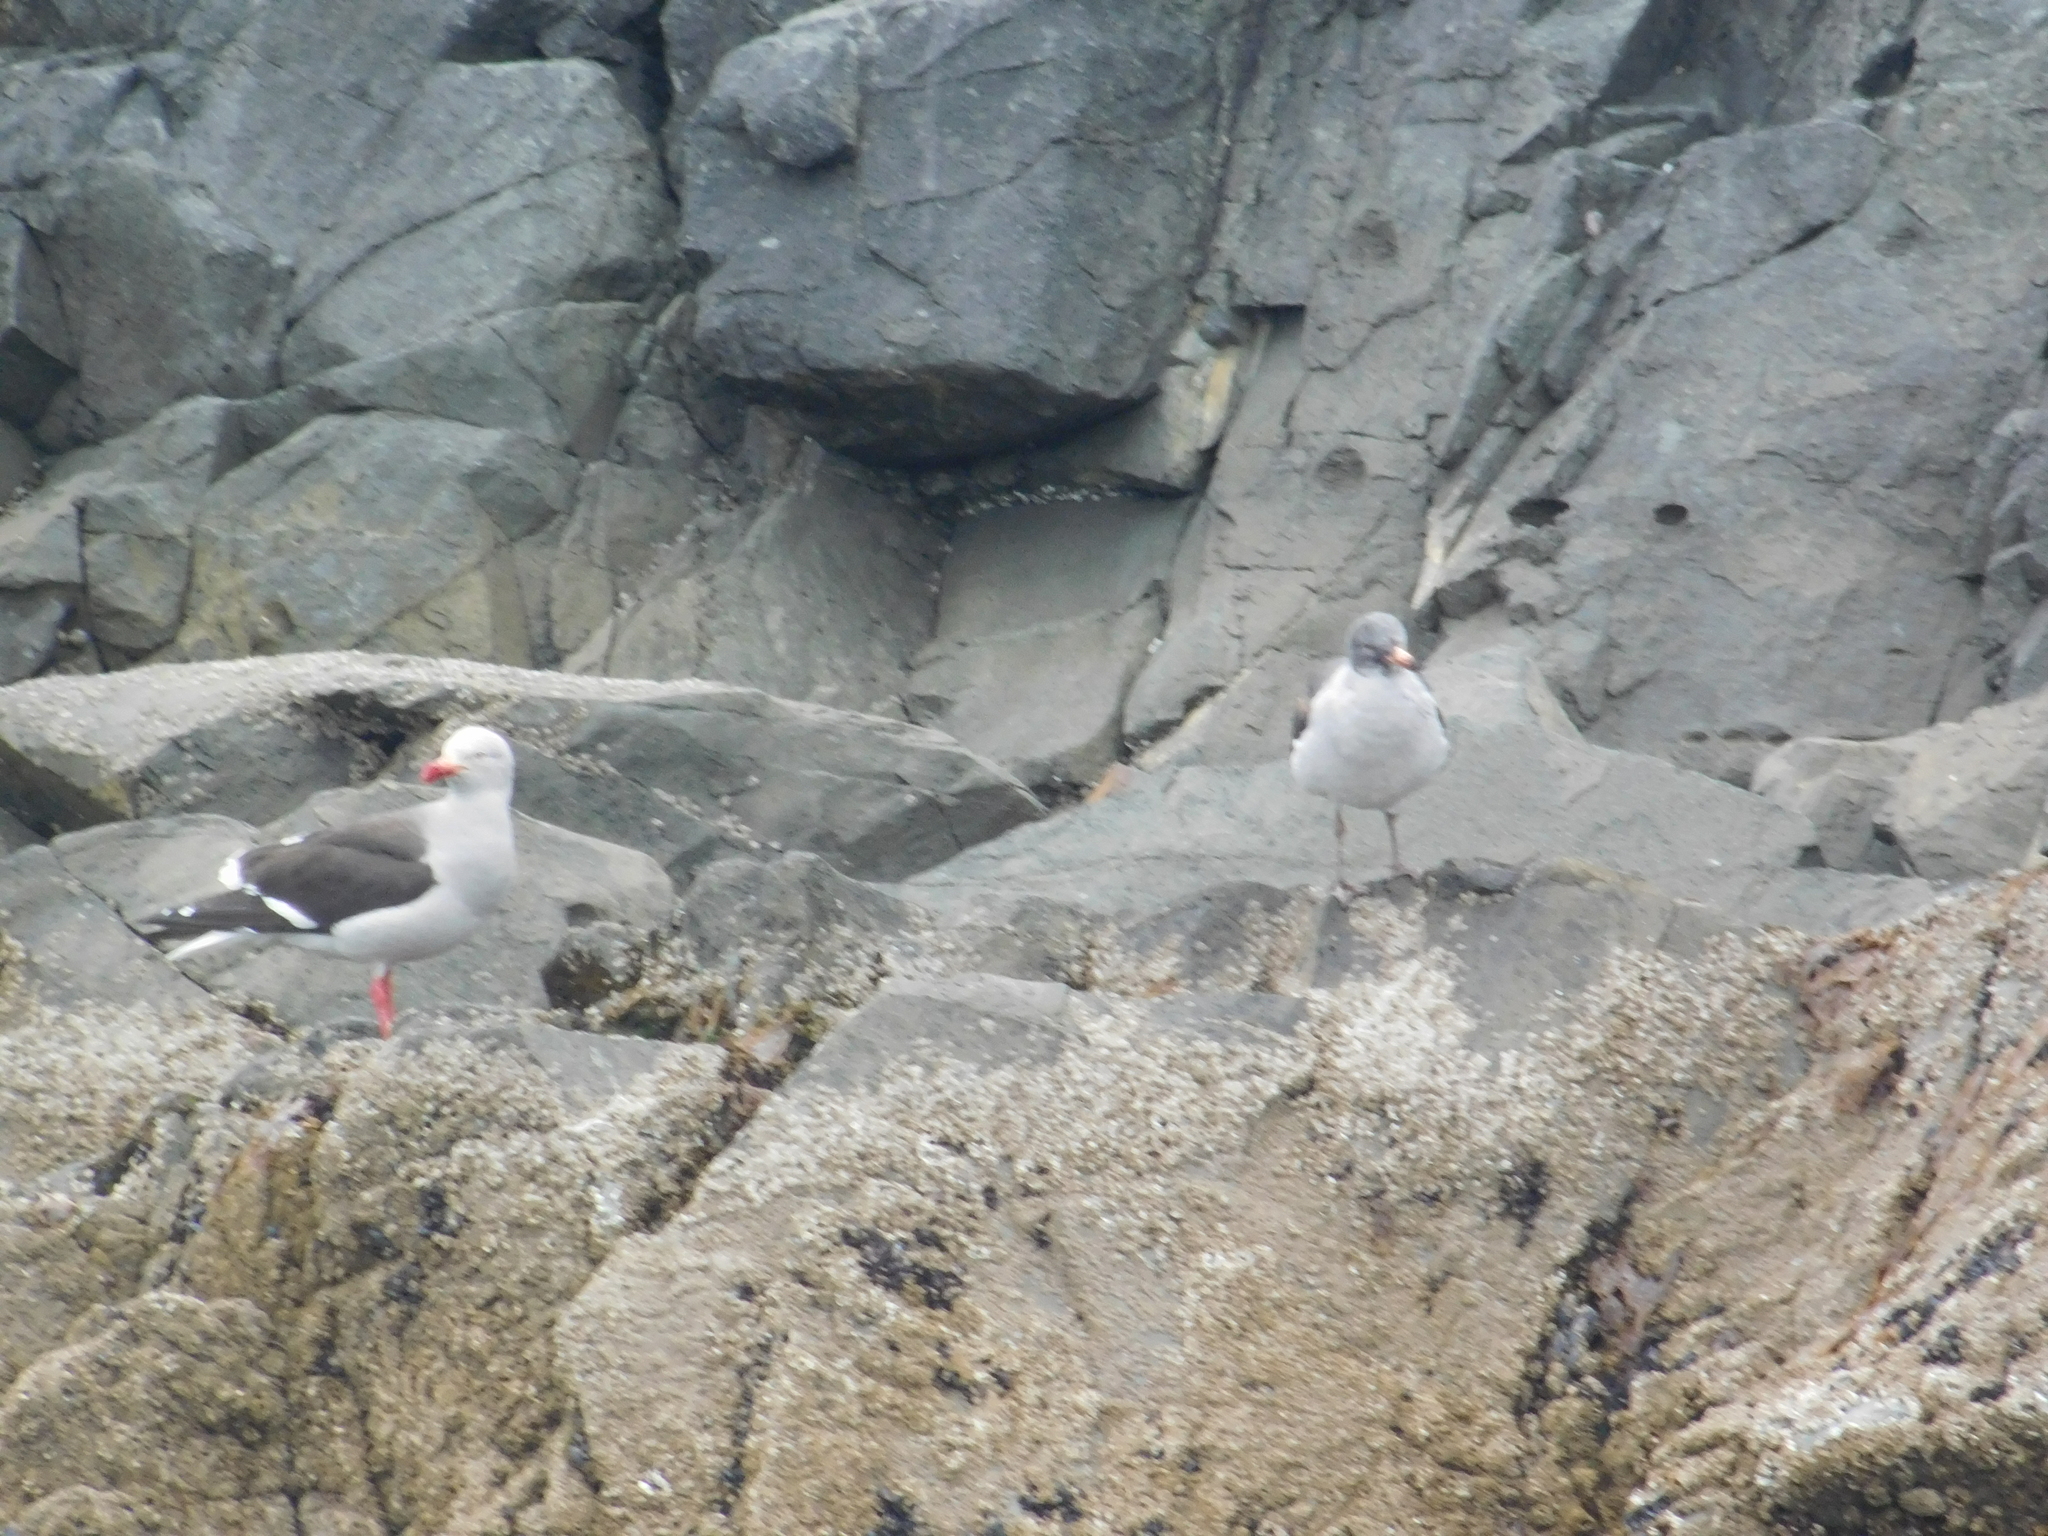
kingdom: Animalia
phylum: Chordata
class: Aves
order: Charadriiformes
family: Laridae
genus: Leucophaeus
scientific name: Leucophaeus scoresbii
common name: Dolphin gull
